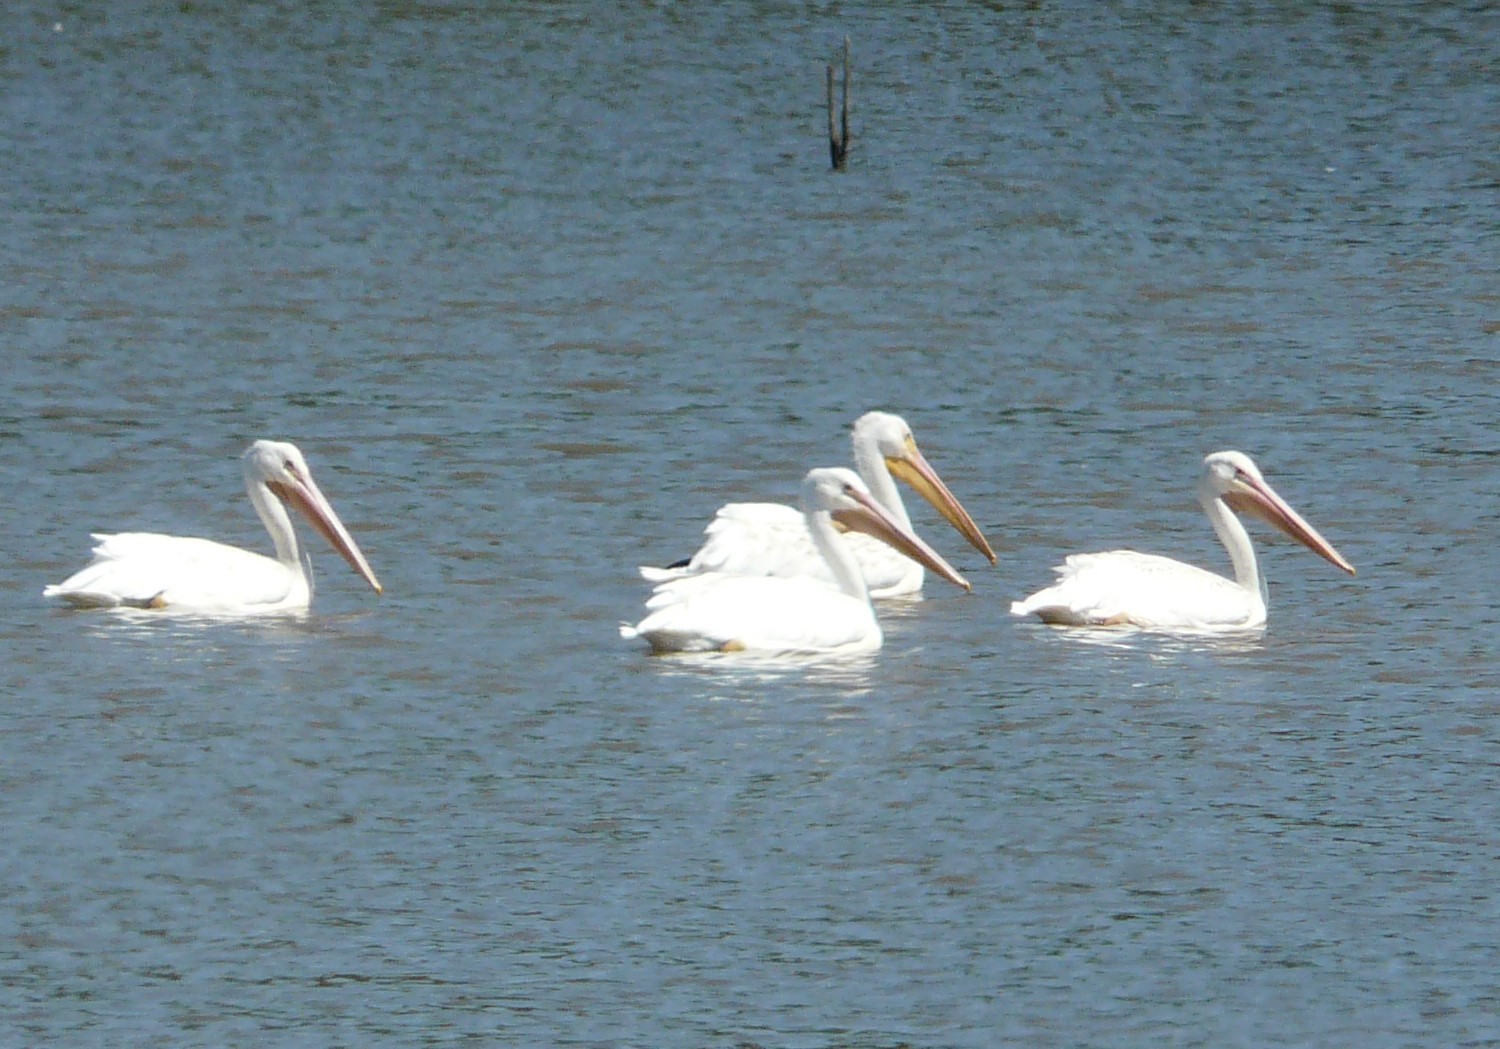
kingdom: Animalia
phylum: Chordata
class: Aves
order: Pelecaniformes
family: Pelecanidae
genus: Pelecanus
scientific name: Pelecanus erythrorhynchos
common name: American white pelican
